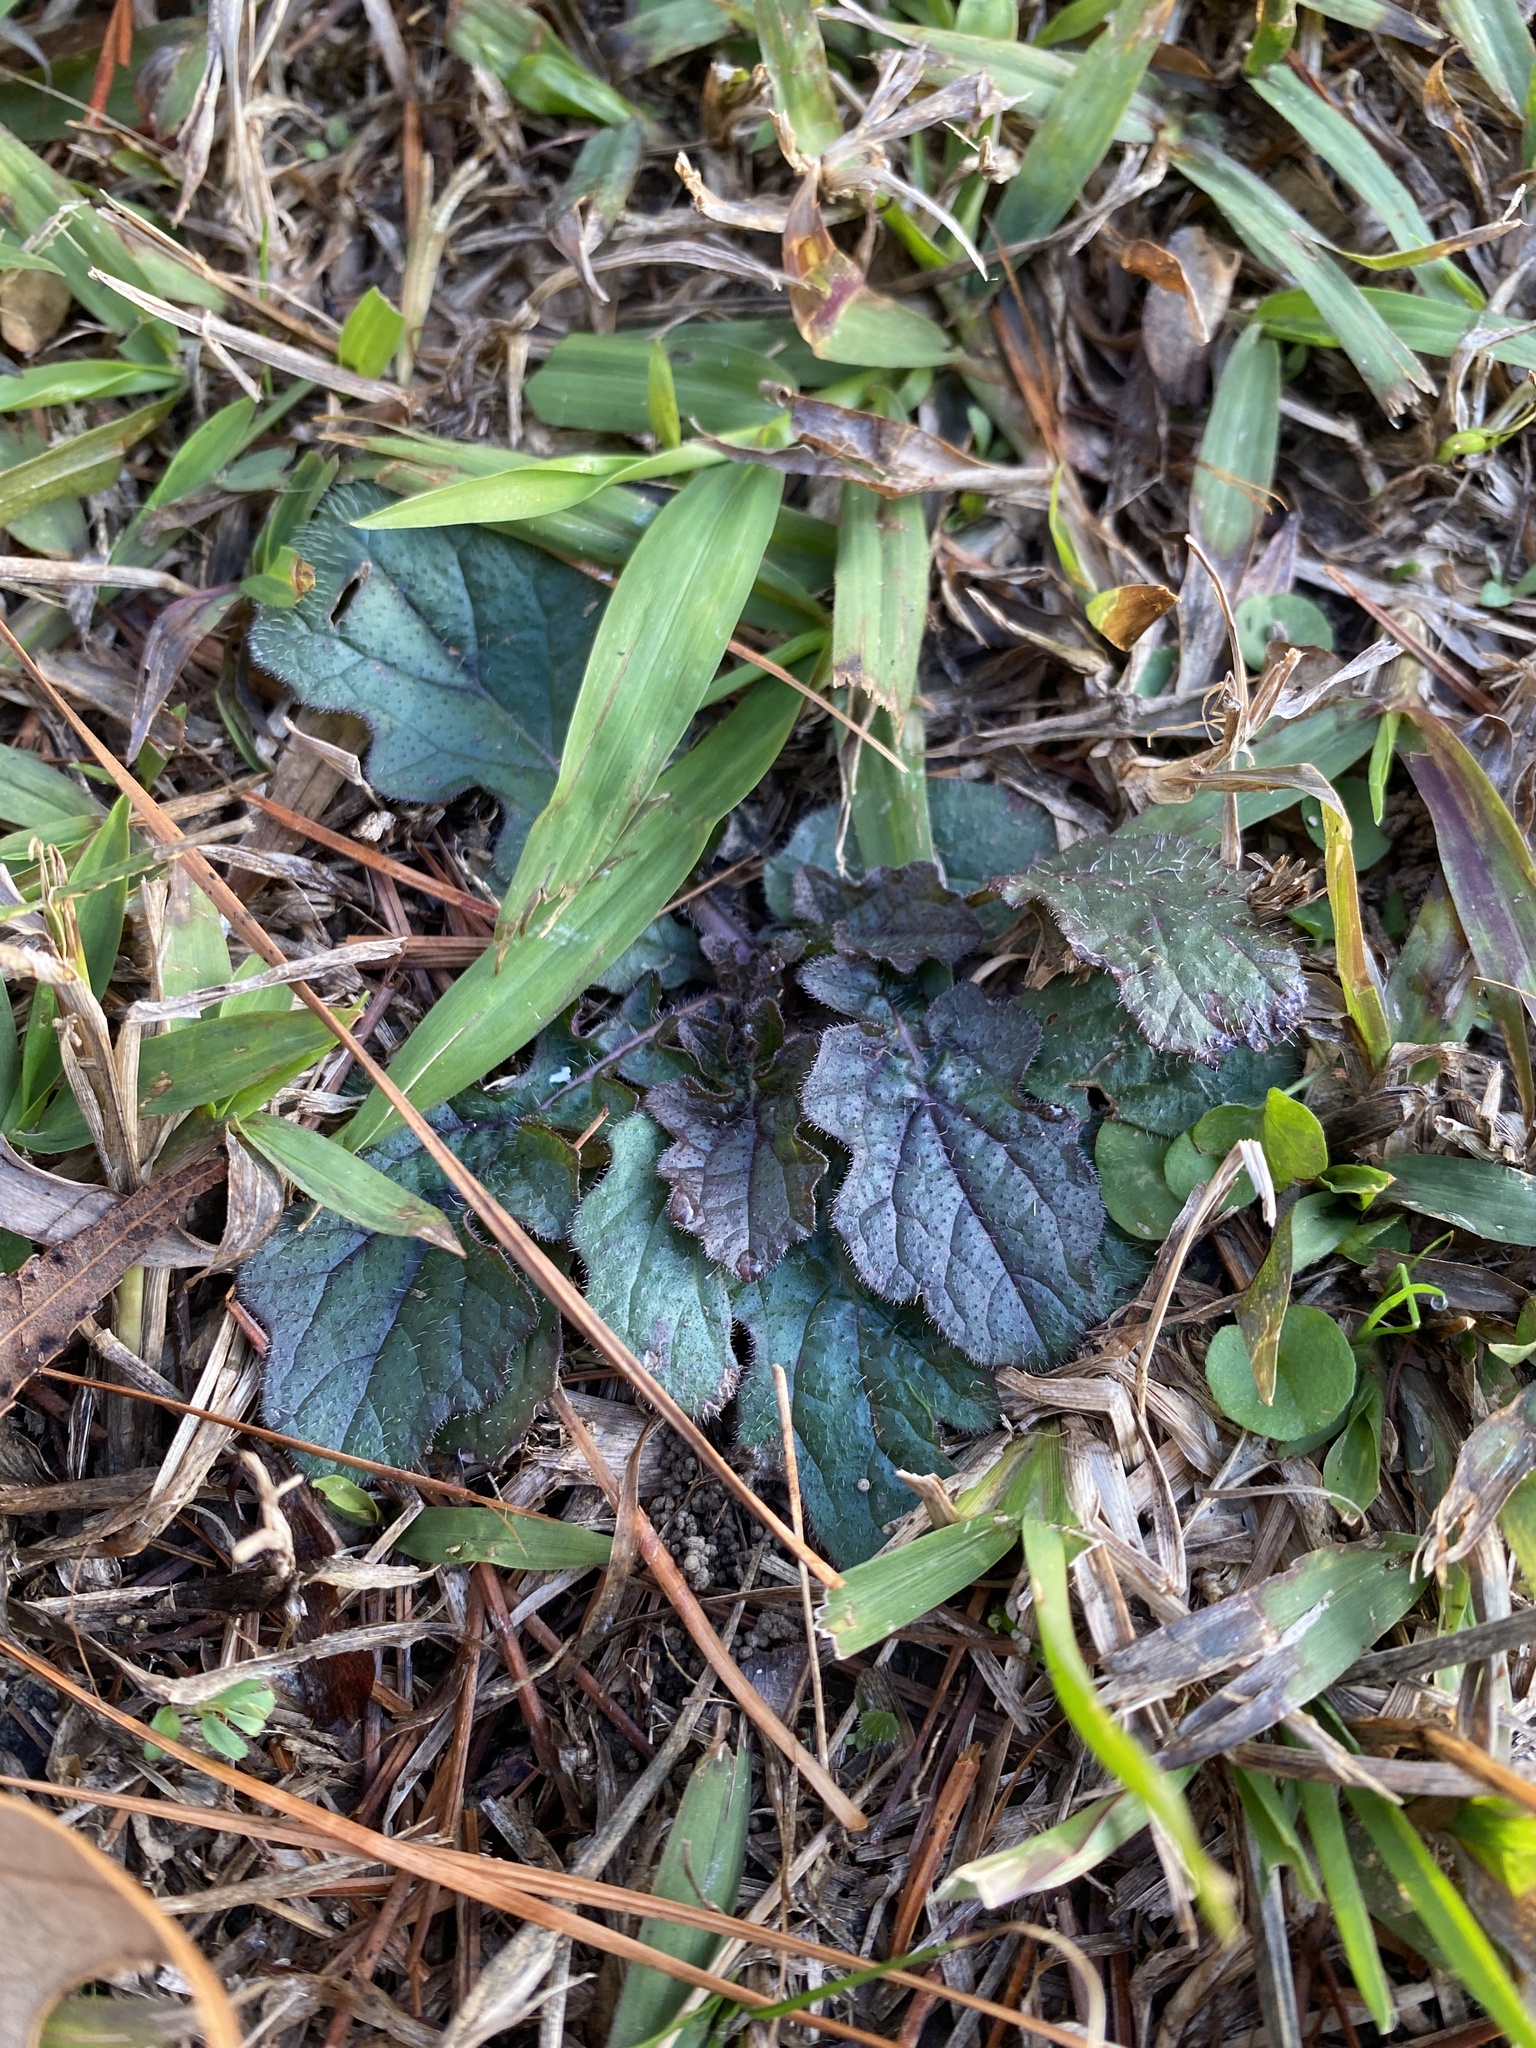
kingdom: Plantae
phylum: Tracheophyta
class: Magnoliopsida
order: Lamiales
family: Lamiaceae
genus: Salvia
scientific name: Salvia lyrata
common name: Cancerweed
